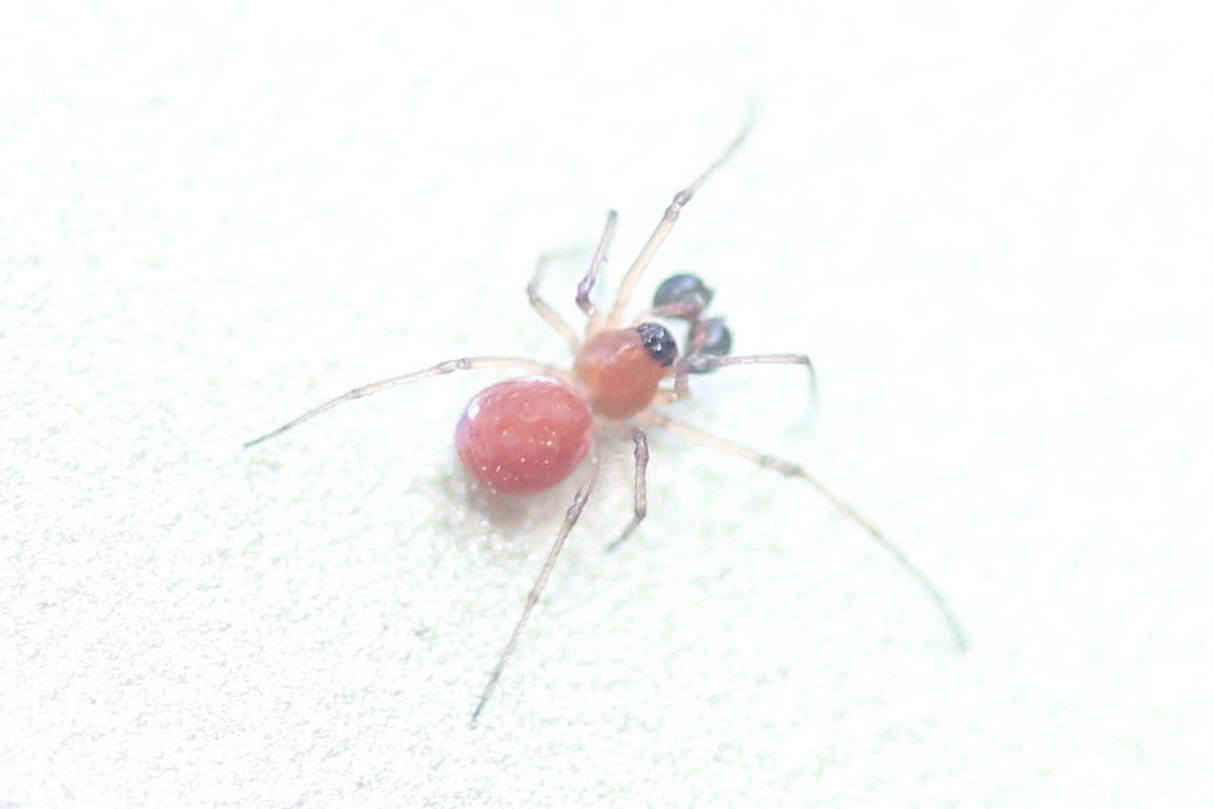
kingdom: Animalia
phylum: Arthropoda
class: Arachnida
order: Araneae
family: Tetragnathidae
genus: Glenognatha
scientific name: Glenognatha foxi
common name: Longjawed orb weavers
